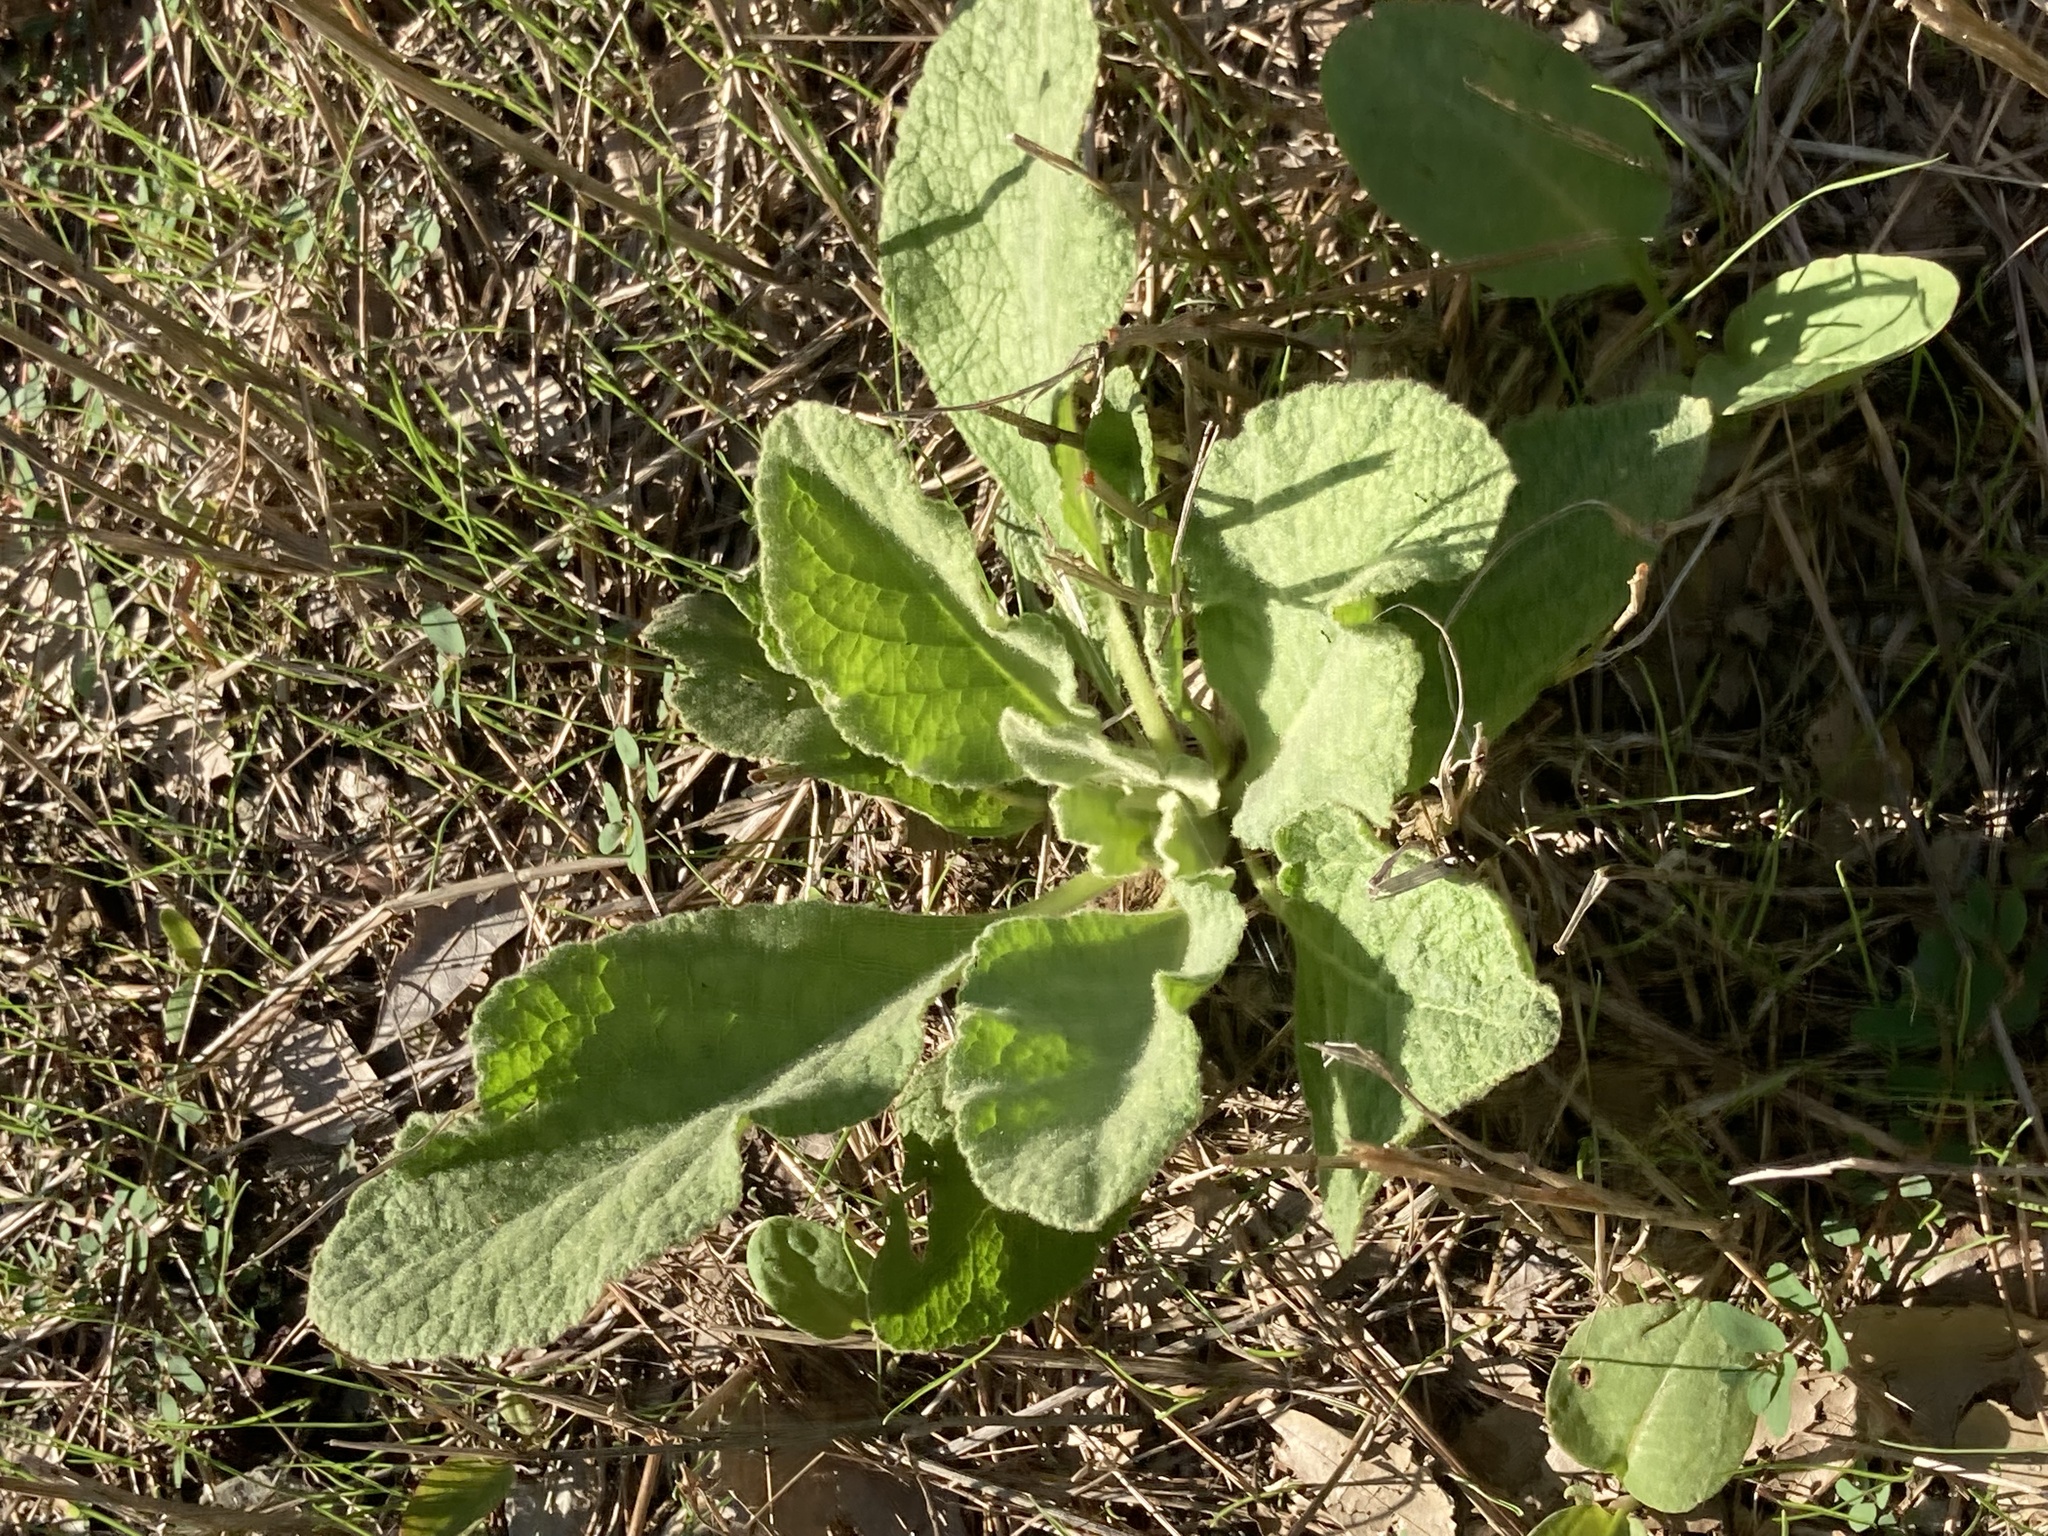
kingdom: Plantae
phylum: Tracheophyta
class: Magnoliopsida
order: Lamiales
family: Scrophulariaceae
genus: Verbascum
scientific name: Verbascum thapsus
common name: Common mullein
